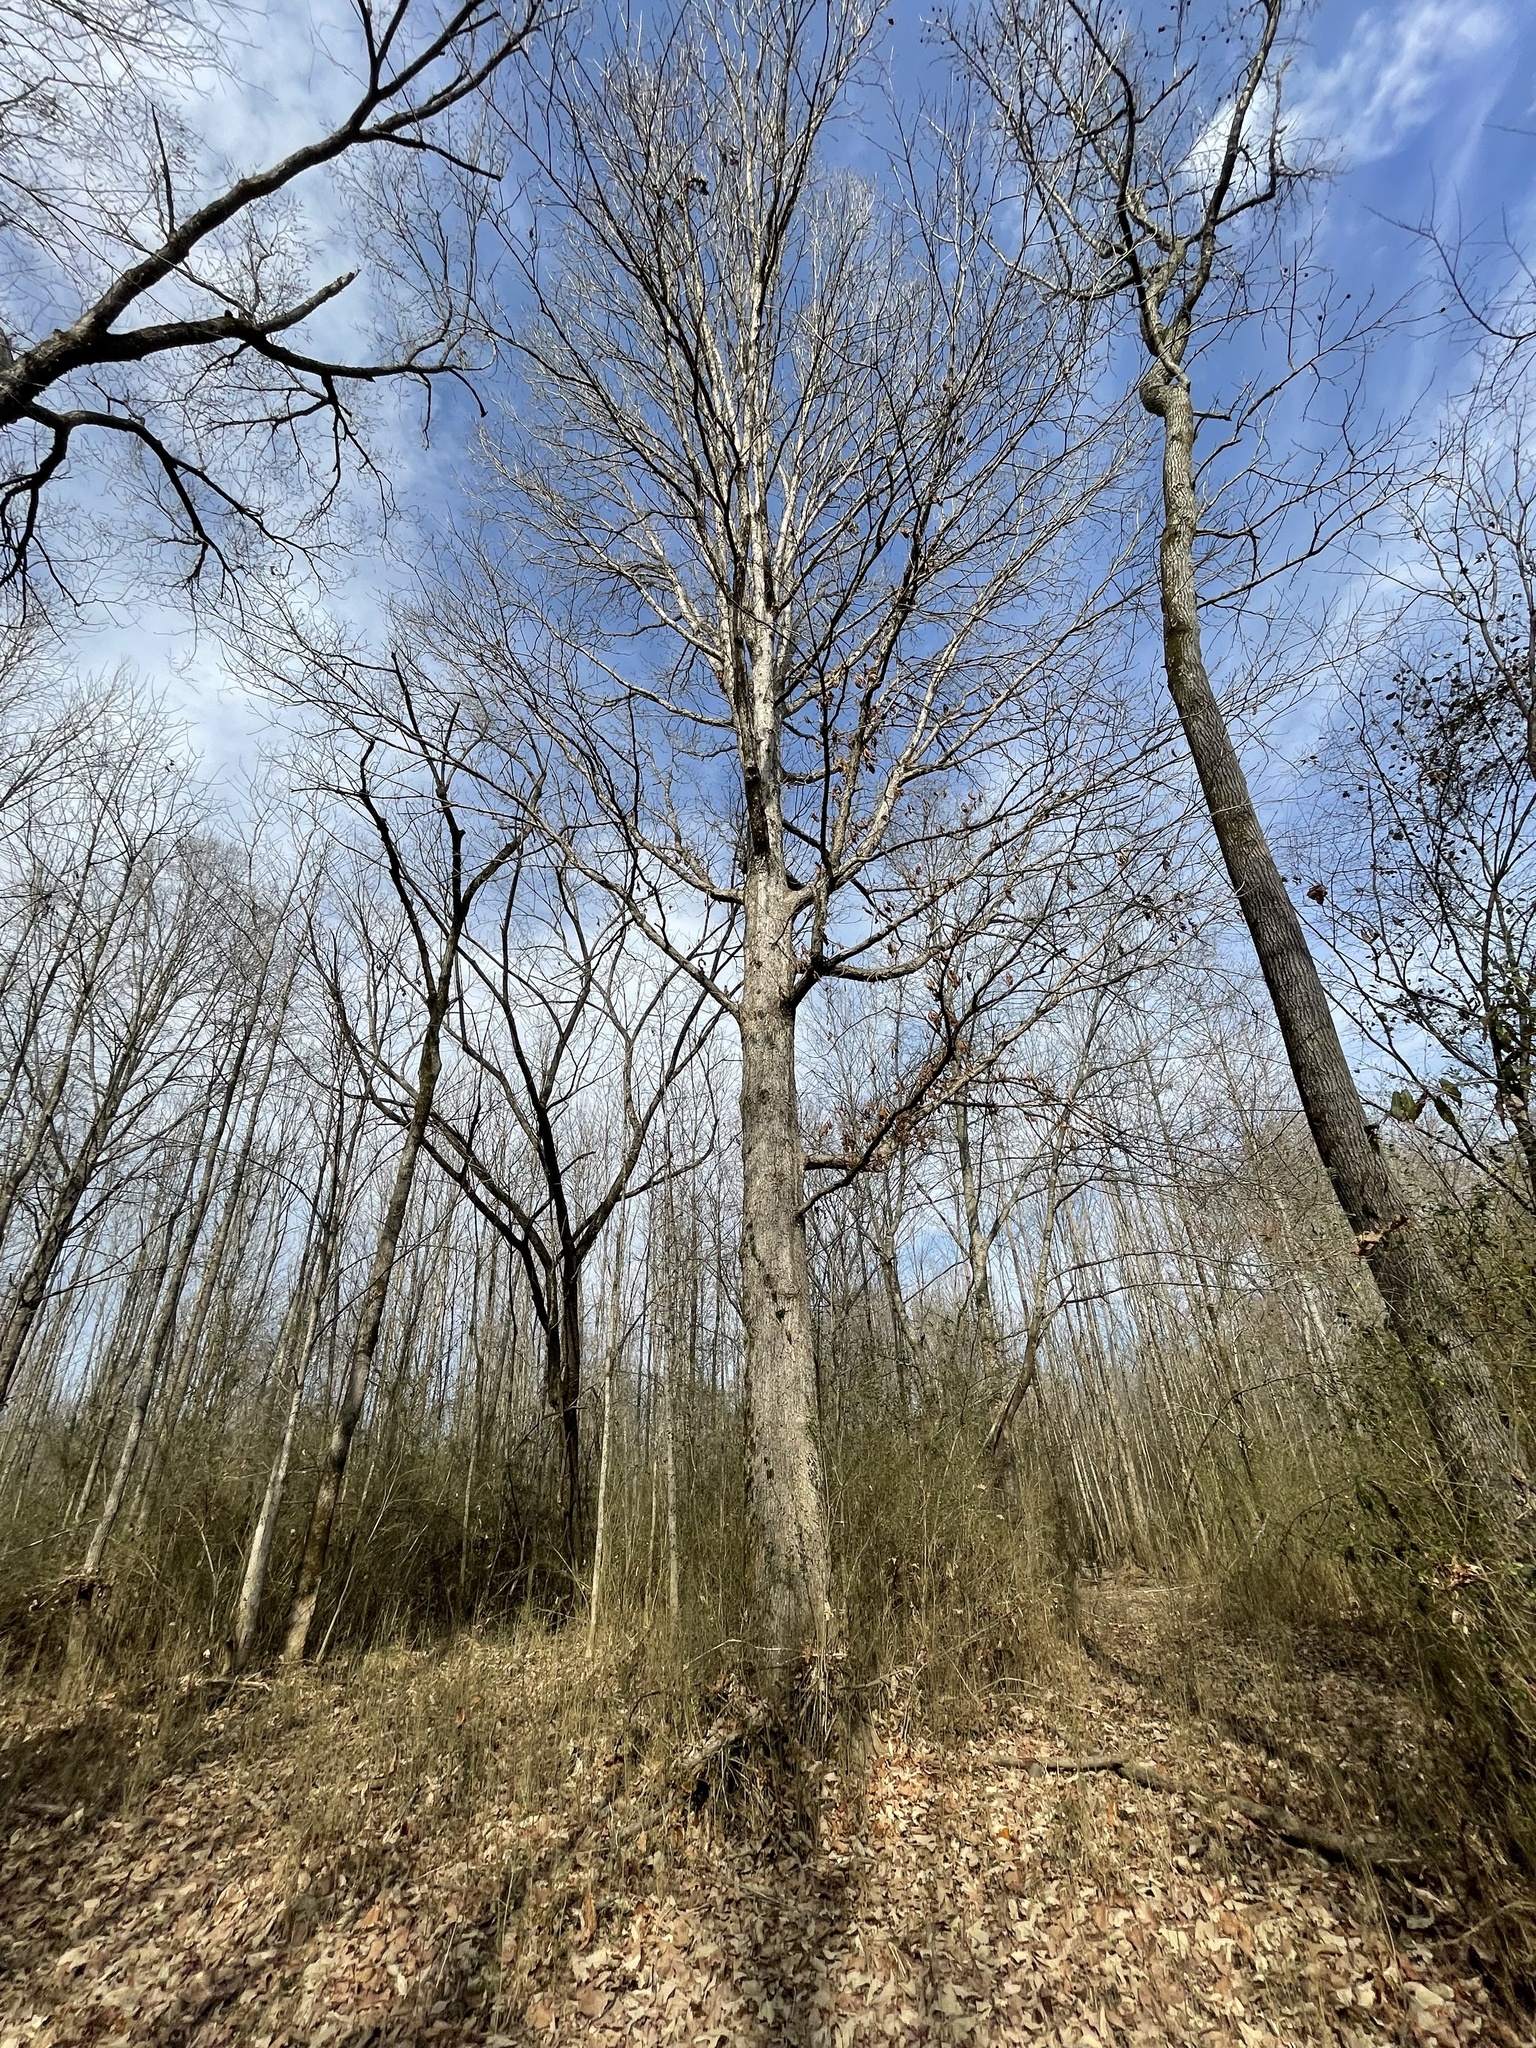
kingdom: Plantae
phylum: Tracheophyta
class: Magnoliopsida
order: Fagales
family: Fagaceae
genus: Quercus
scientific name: Quercus michauxii
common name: Swamp chestnut oak
